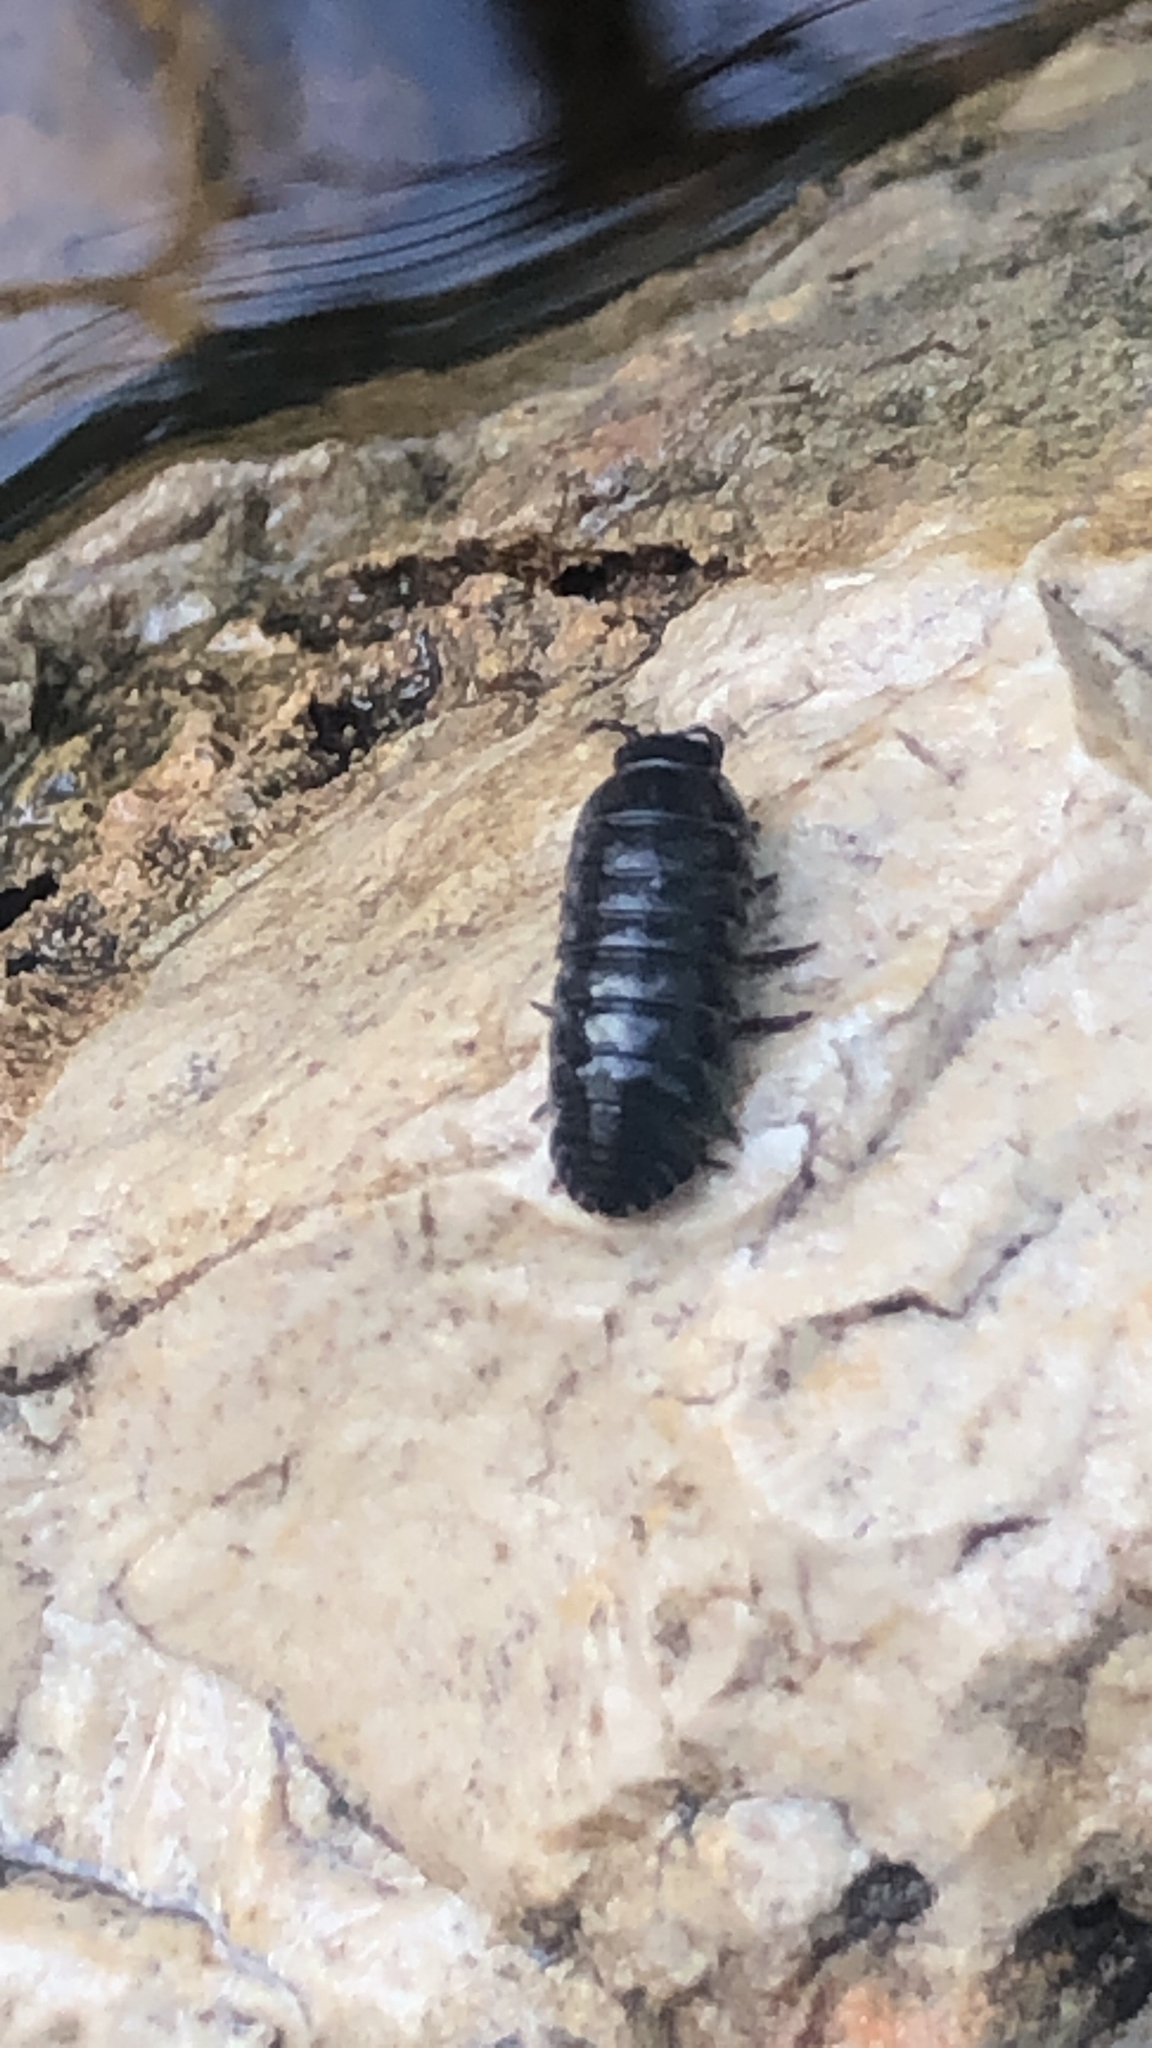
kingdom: Animalia
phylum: Arthropoda
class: Malacostraca
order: Isopoda
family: Armadillidiidae
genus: Armadillidium
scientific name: Armadillidium vulgare
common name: Common pill woodlouse
